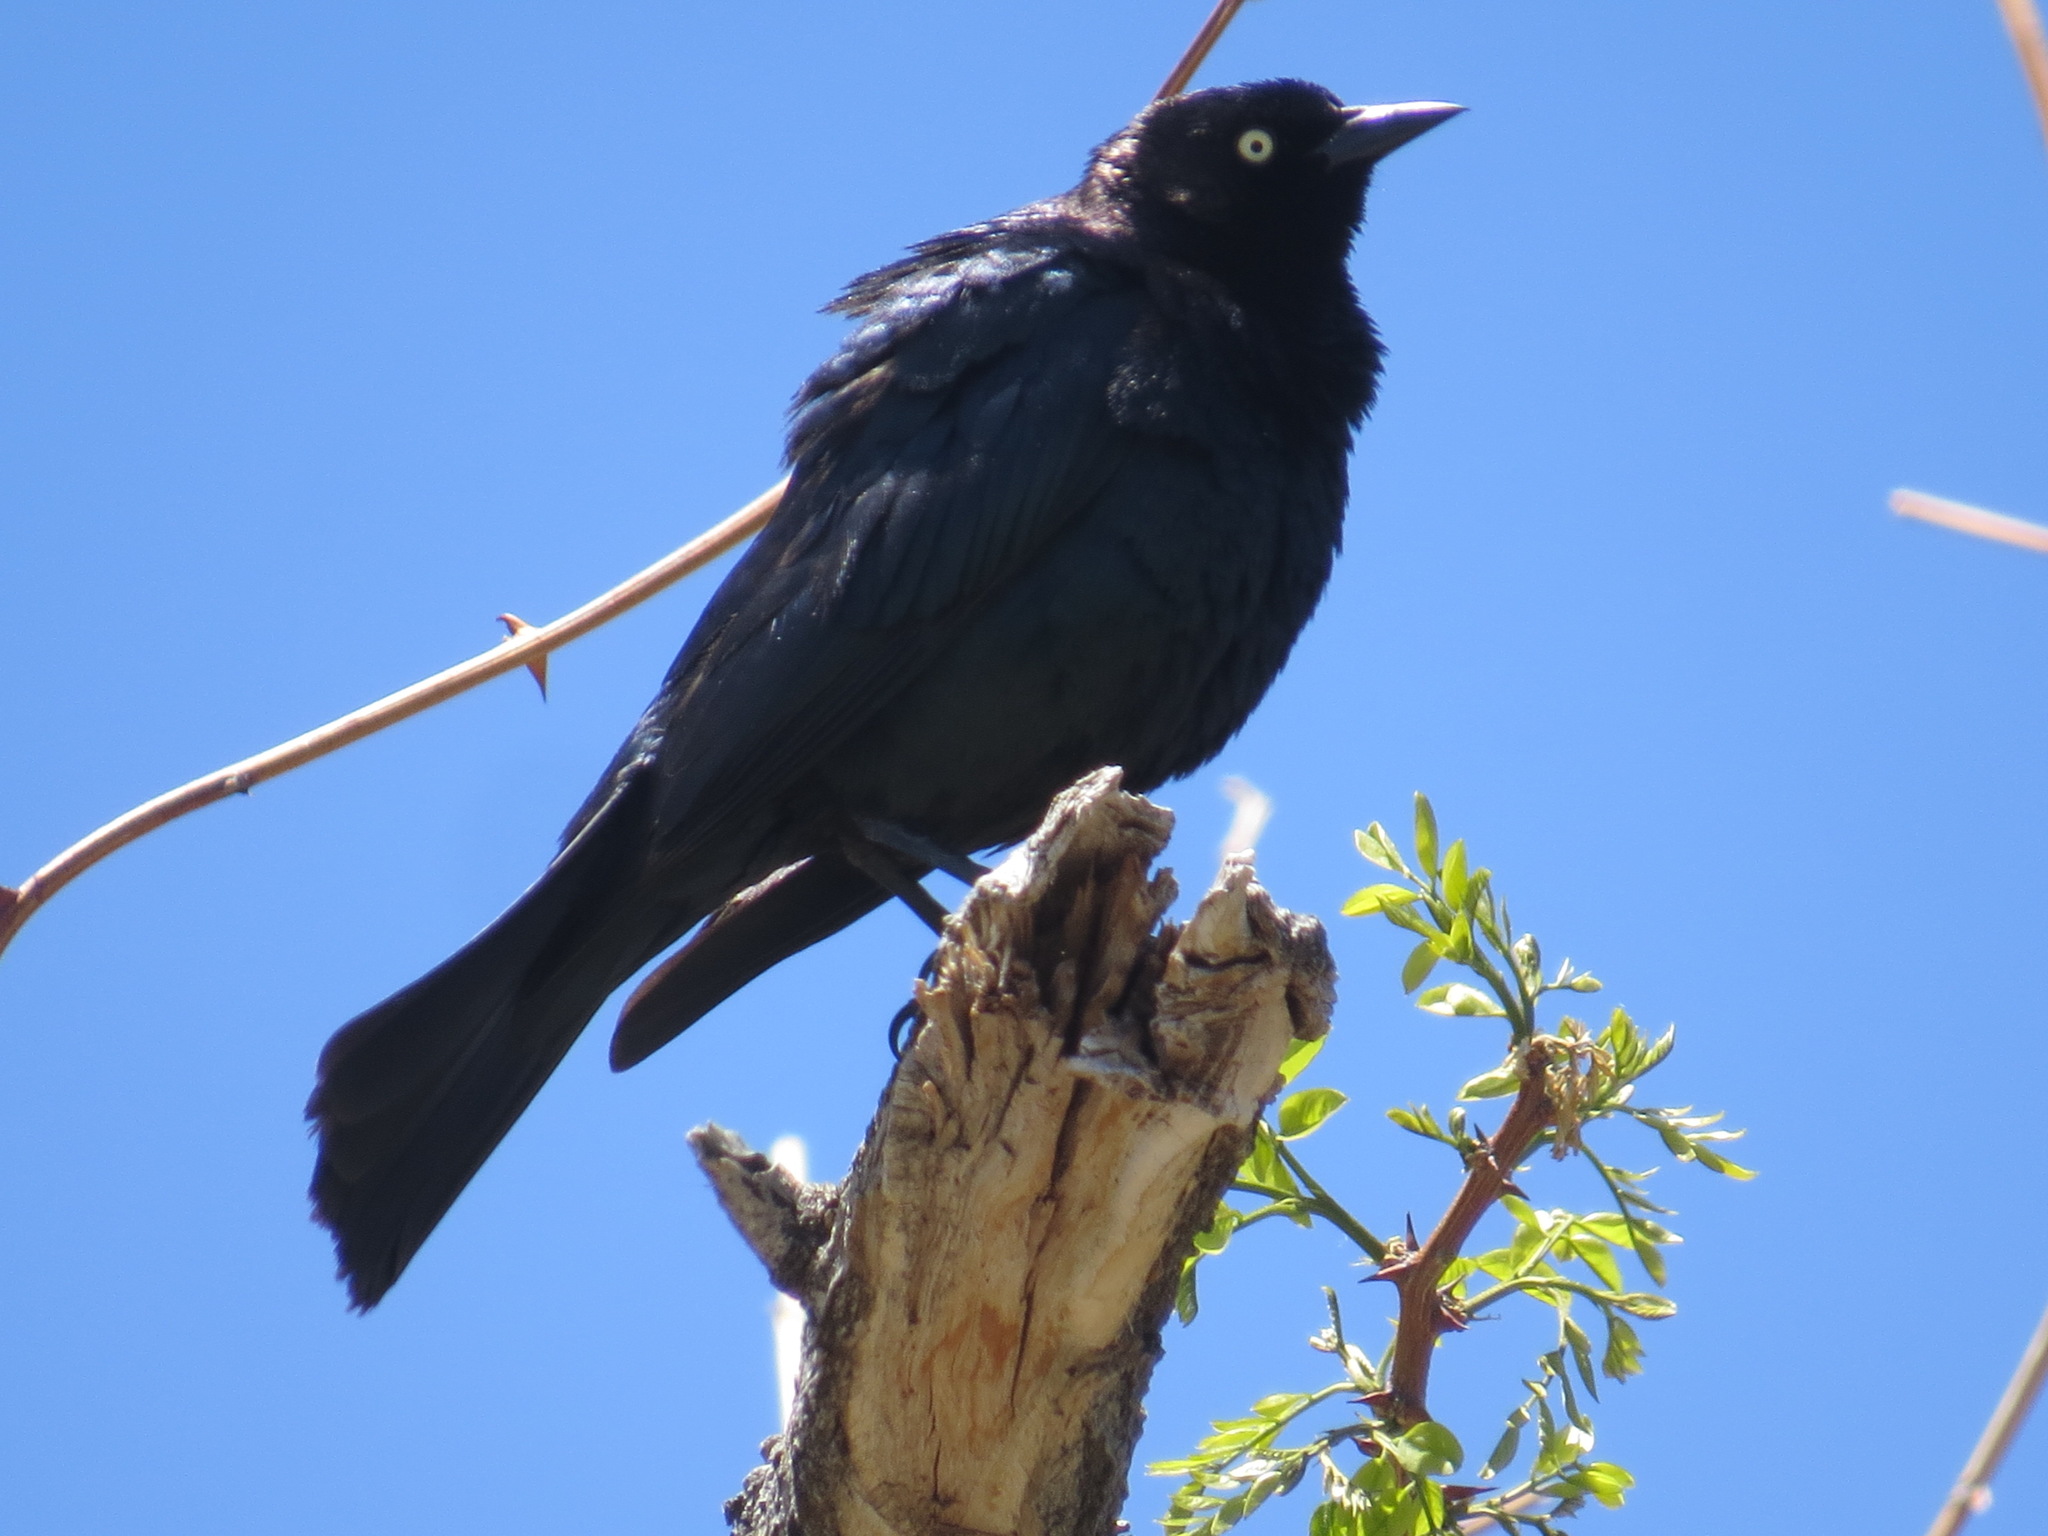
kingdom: Animalia
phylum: Chordata
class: Aves
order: Passeriformes
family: Icteridae
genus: Euphagus
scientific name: Euphagus cyanocephalus
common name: Brewer's blackbird
